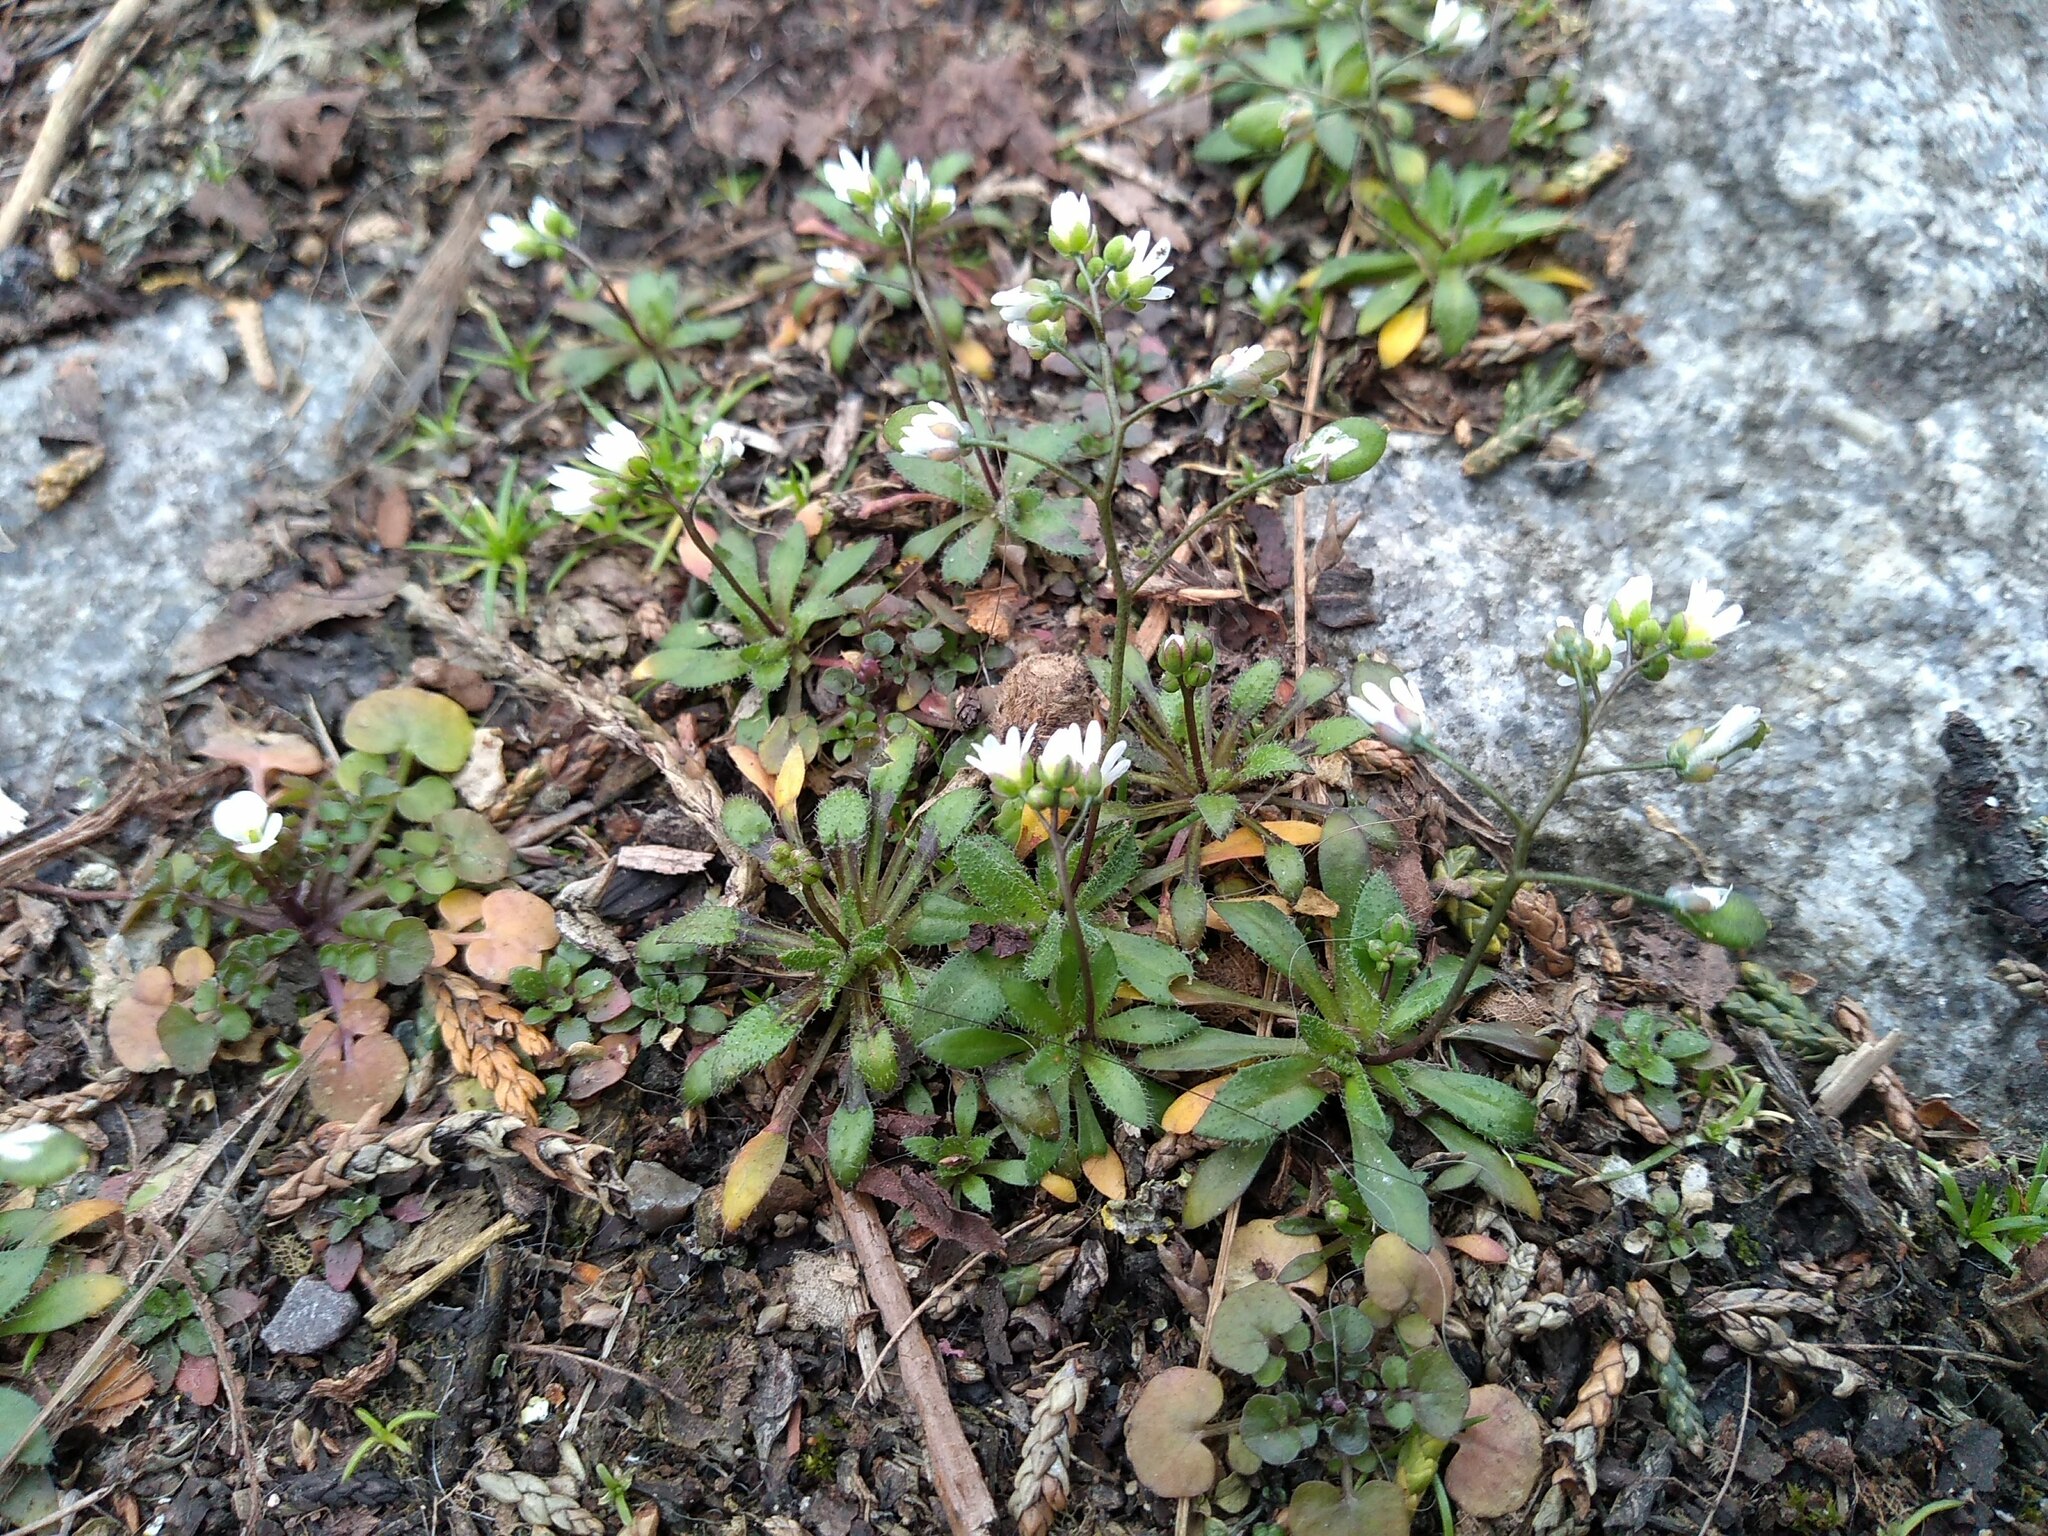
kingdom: Plantae
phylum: Tracheophyta
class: Magnoliopsida
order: Brassicales
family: Brassicaceae
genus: Draba
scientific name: Draba verna
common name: Spring draba
